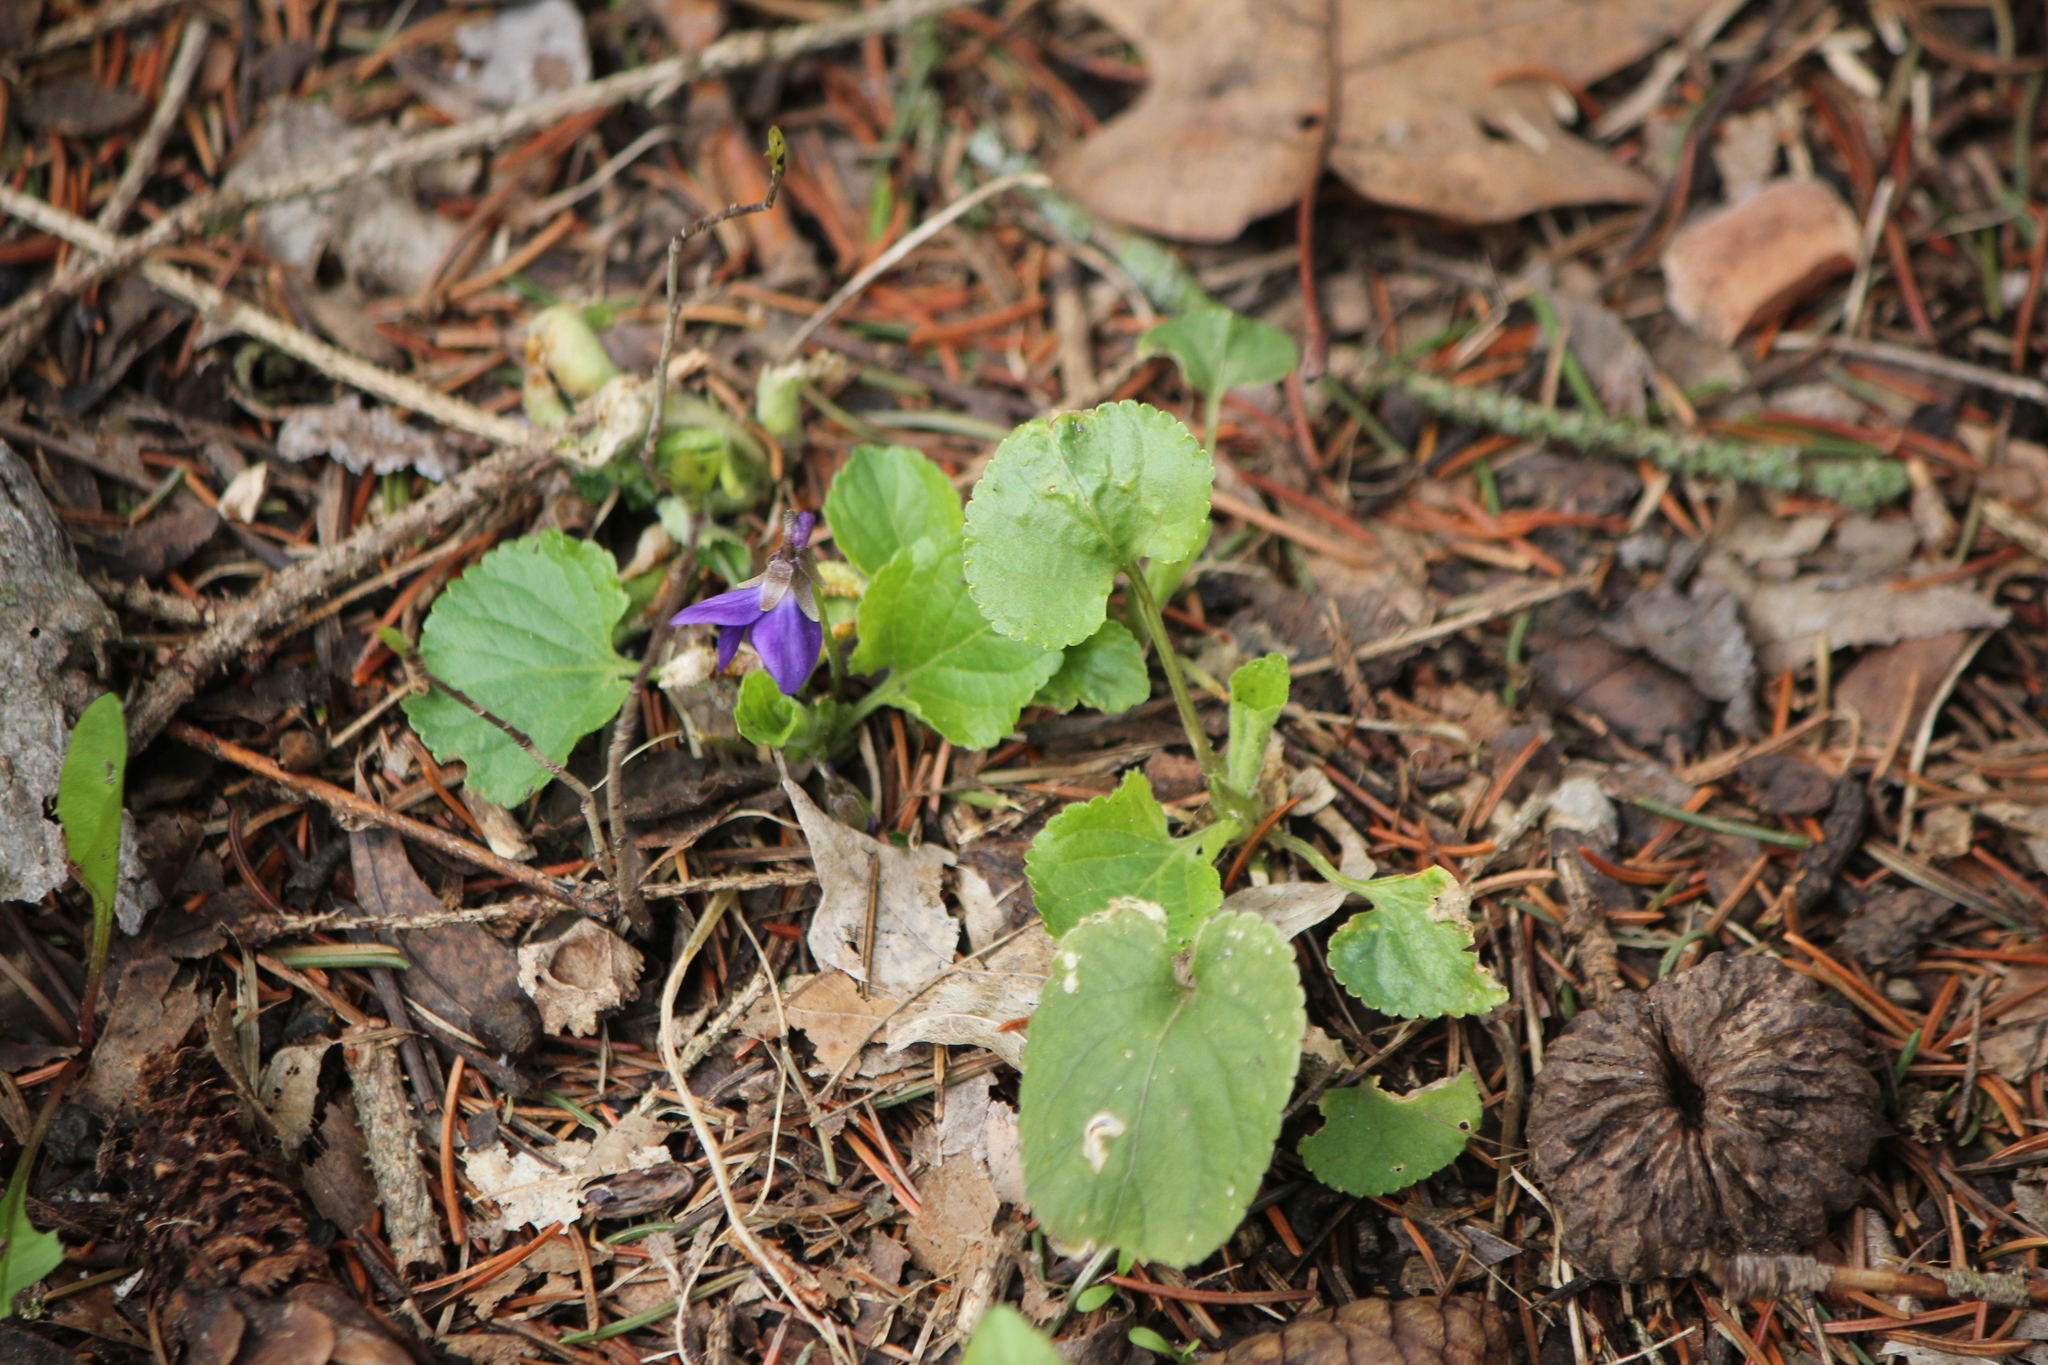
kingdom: Plantae
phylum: Tracheophyta
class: Magnoliopsida
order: Malpighiales
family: Violaceae
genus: Viola
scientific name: Viola odorata
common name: Sweet violet
